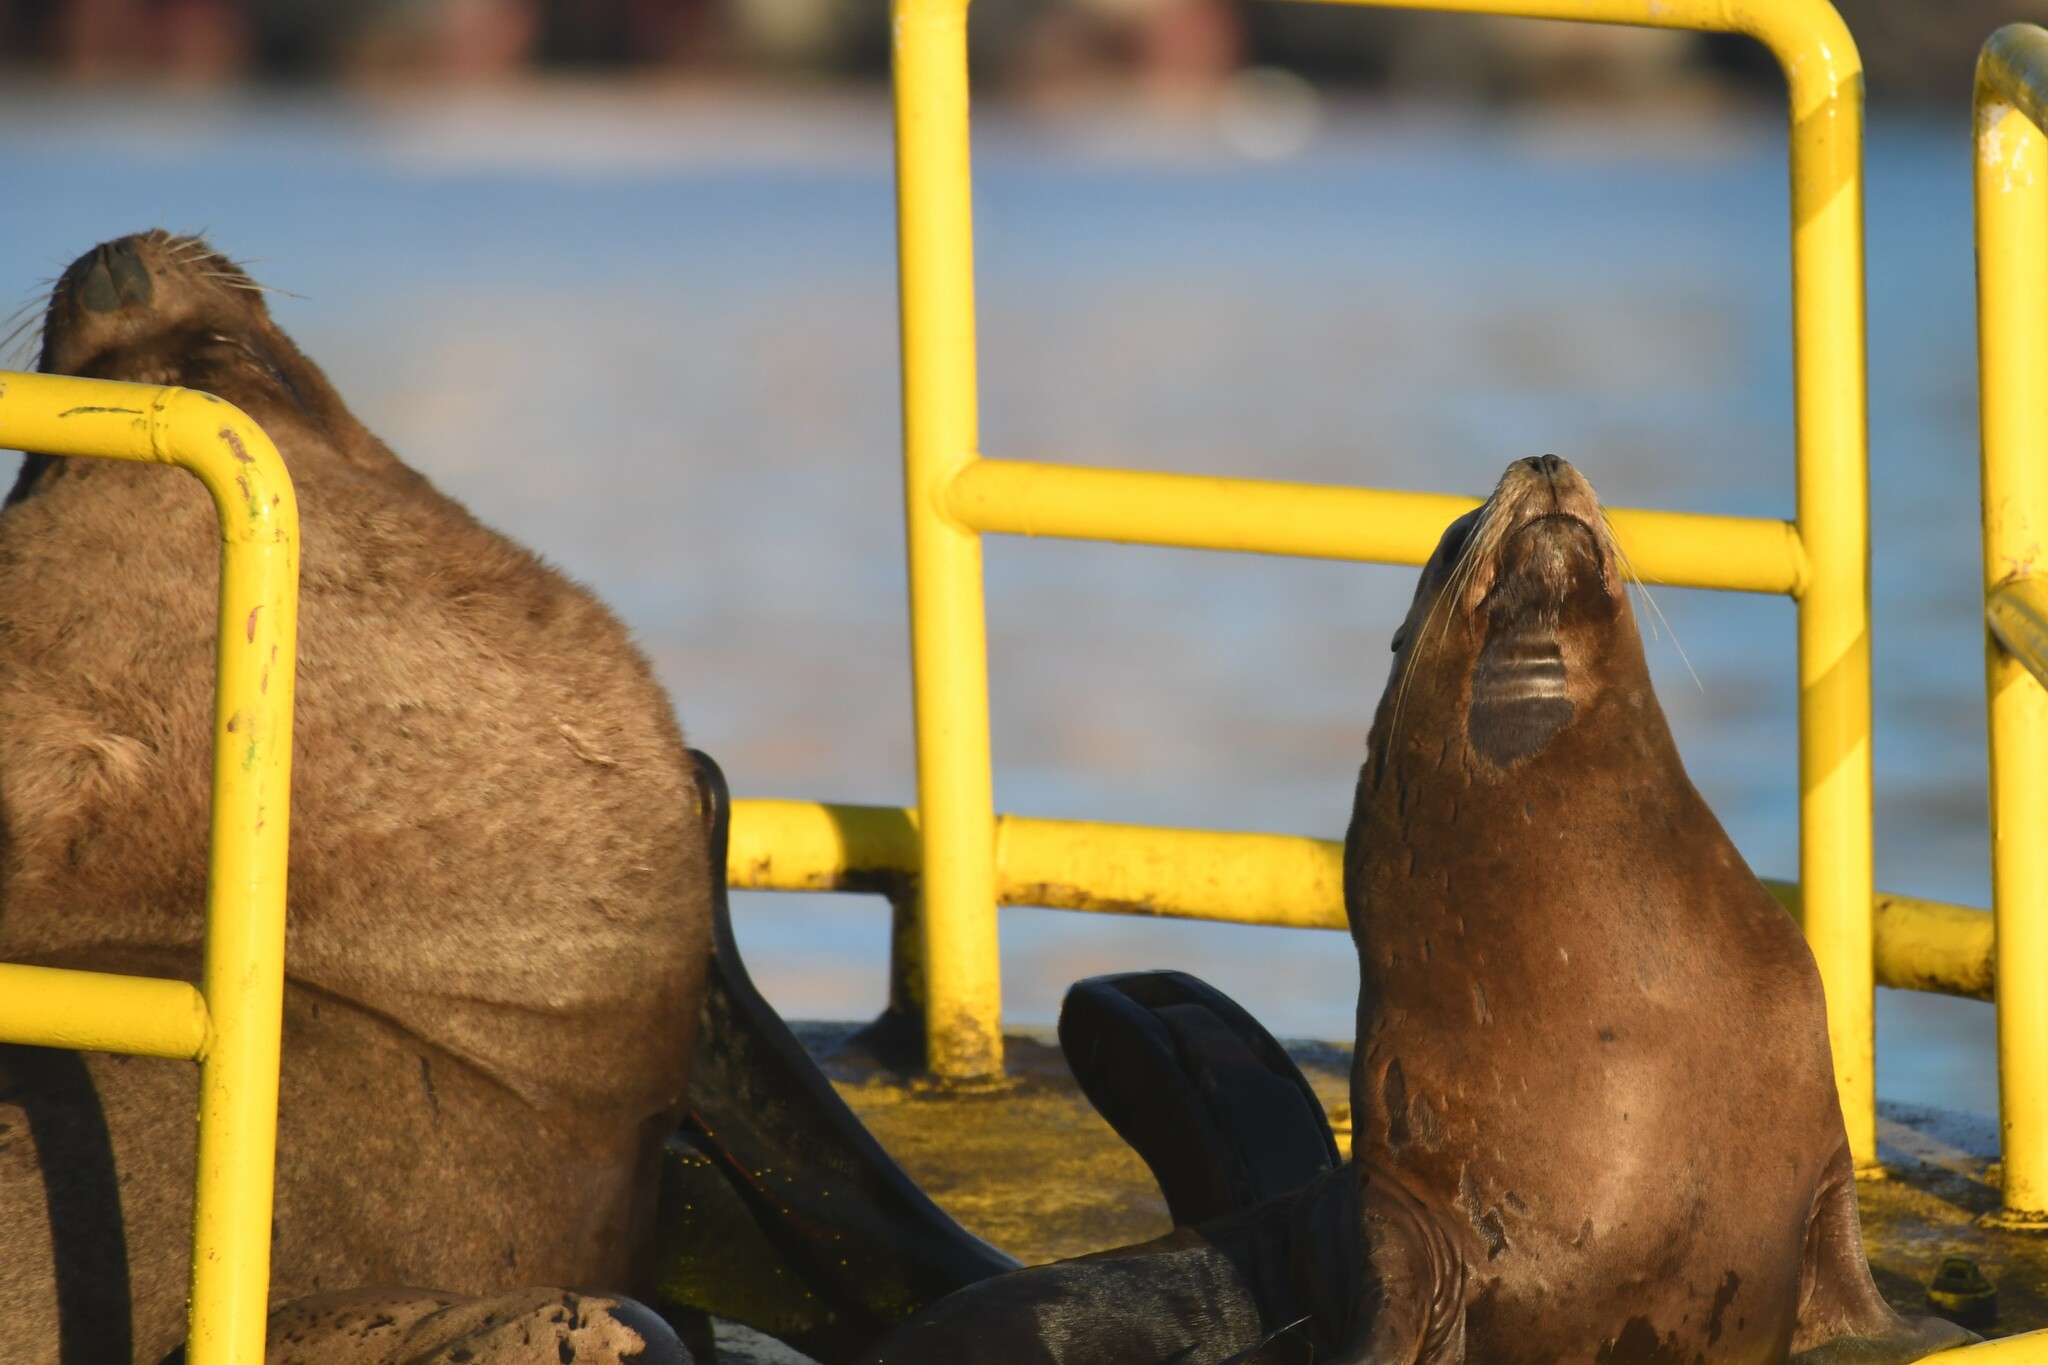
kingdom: Animalia
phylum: Chordata
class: Mammalia
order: Carnivora
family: Otariidae
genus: Otaria
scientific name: Otaria byronia
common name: South american sea lion
